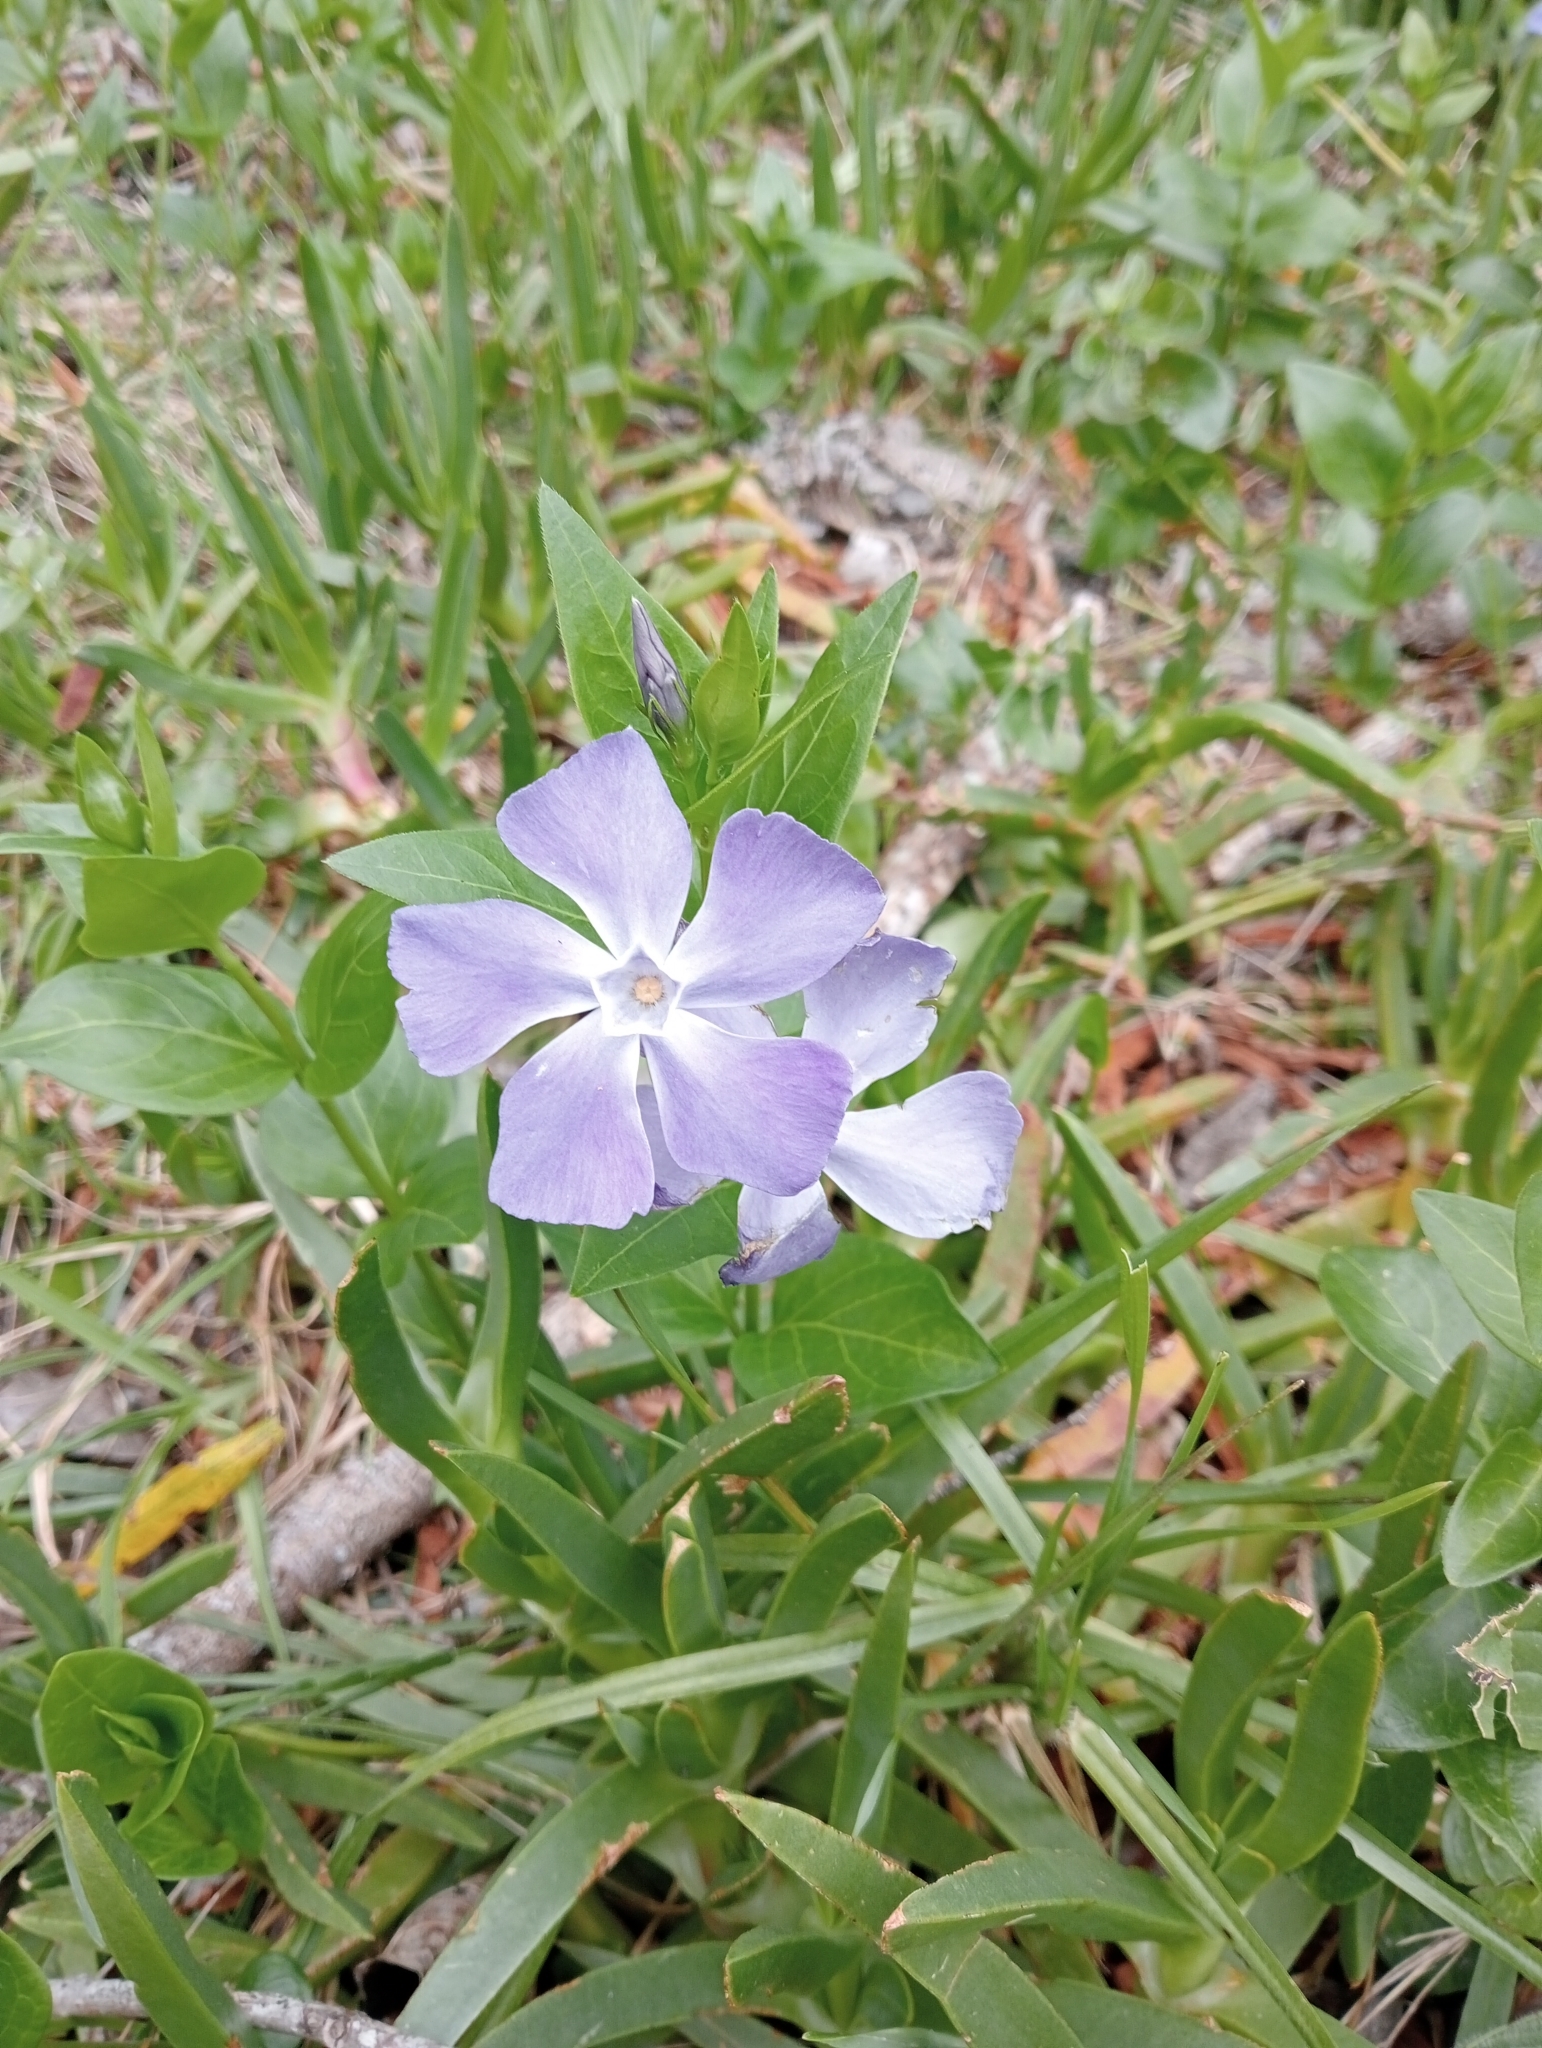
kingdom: Plantae
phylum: Tracheophyta
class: Magnoliopsida
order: Gentianales
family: Apocynaceae
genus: Vinca
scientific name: Vinca major
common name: Greater periwinkle
